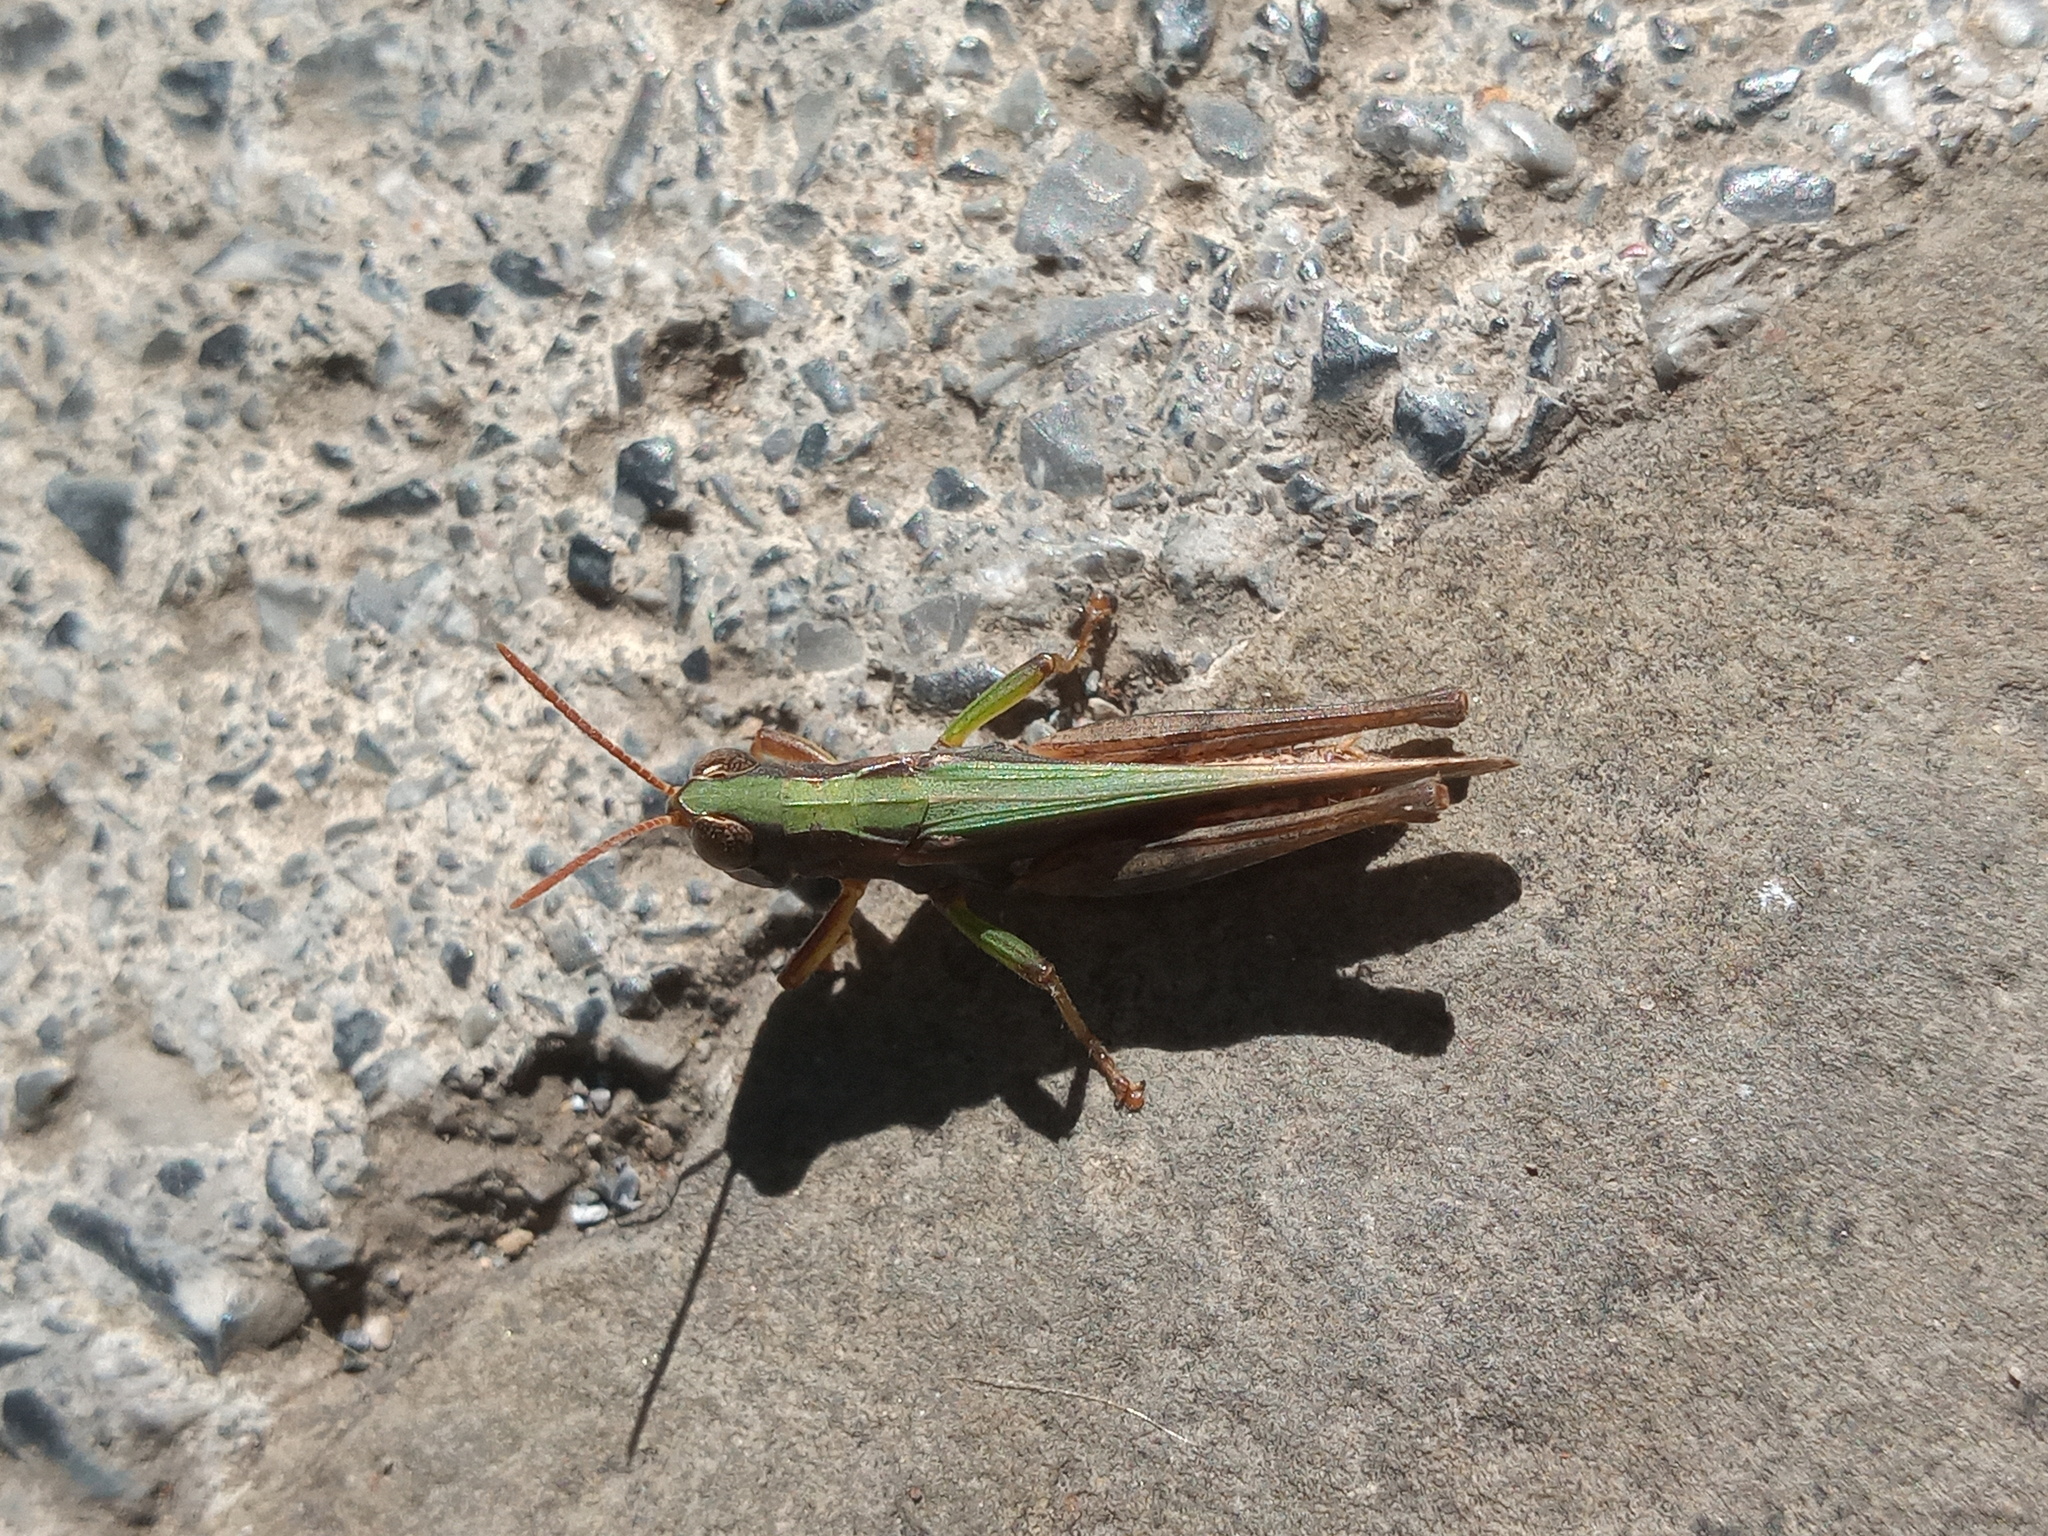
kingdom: Animalia
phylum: Arthropoda
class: Insecta
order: Orthoptera
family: Acrididae
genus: Orphulella
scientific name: Orphulella speciosa
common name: Pasture grasshopper
